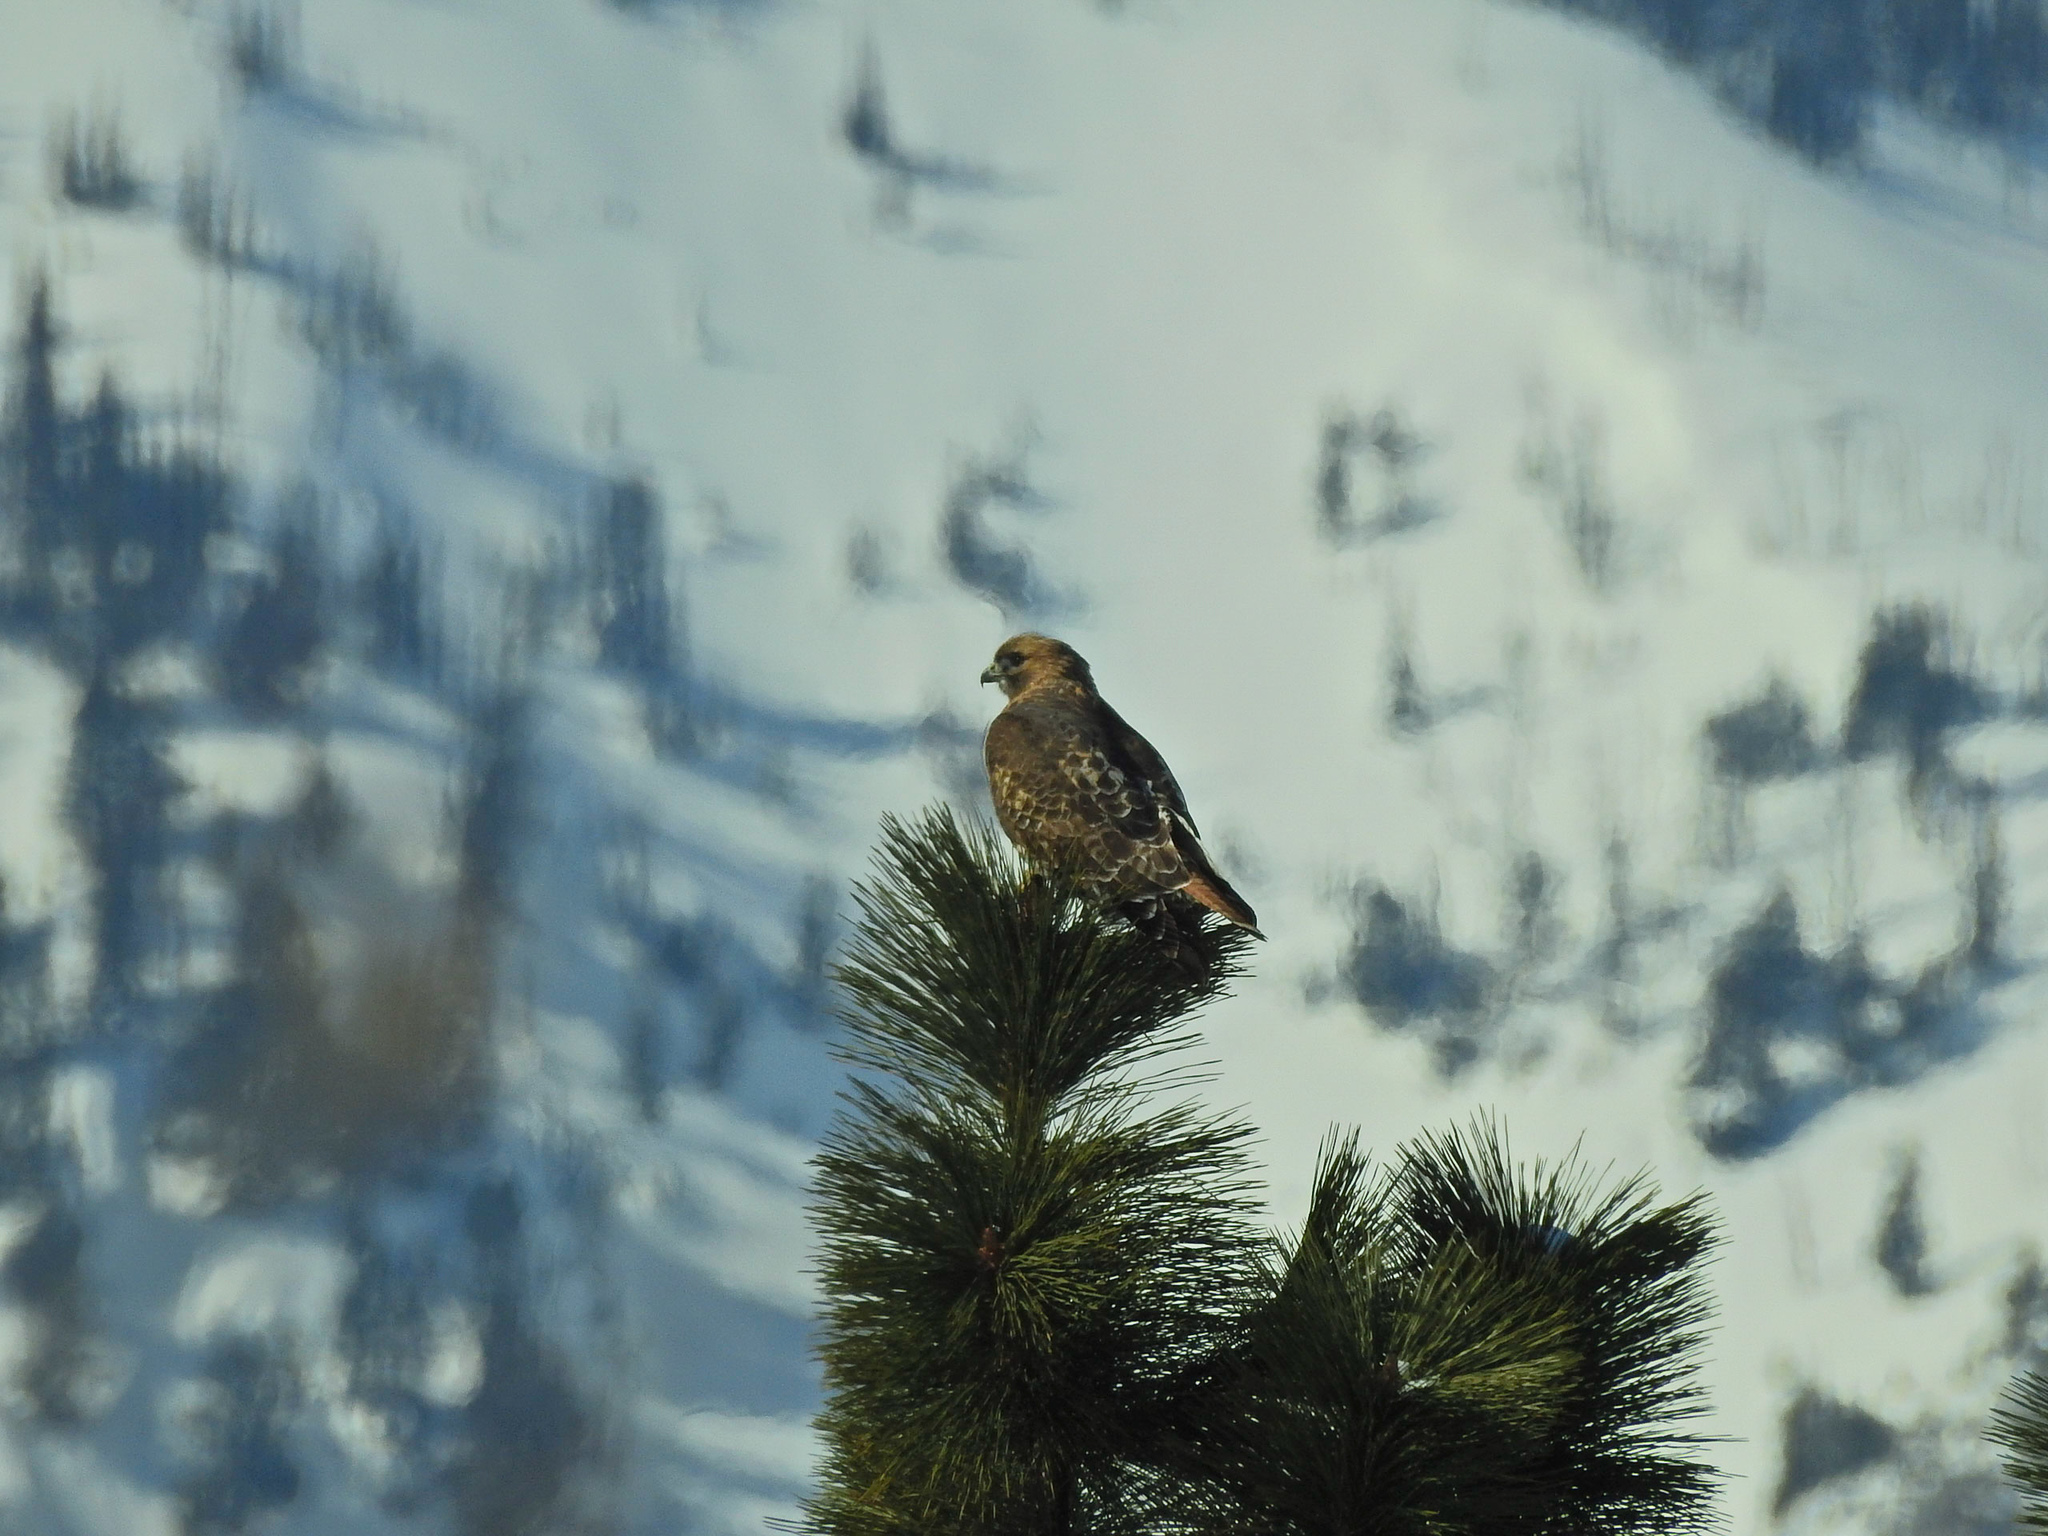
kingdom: Animalia
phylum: Chordata
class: Aves
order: Accipitriformes
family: Accipitridae
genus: Buteo
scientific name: Buteo jamaicensis
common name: Red-tailed hawk
